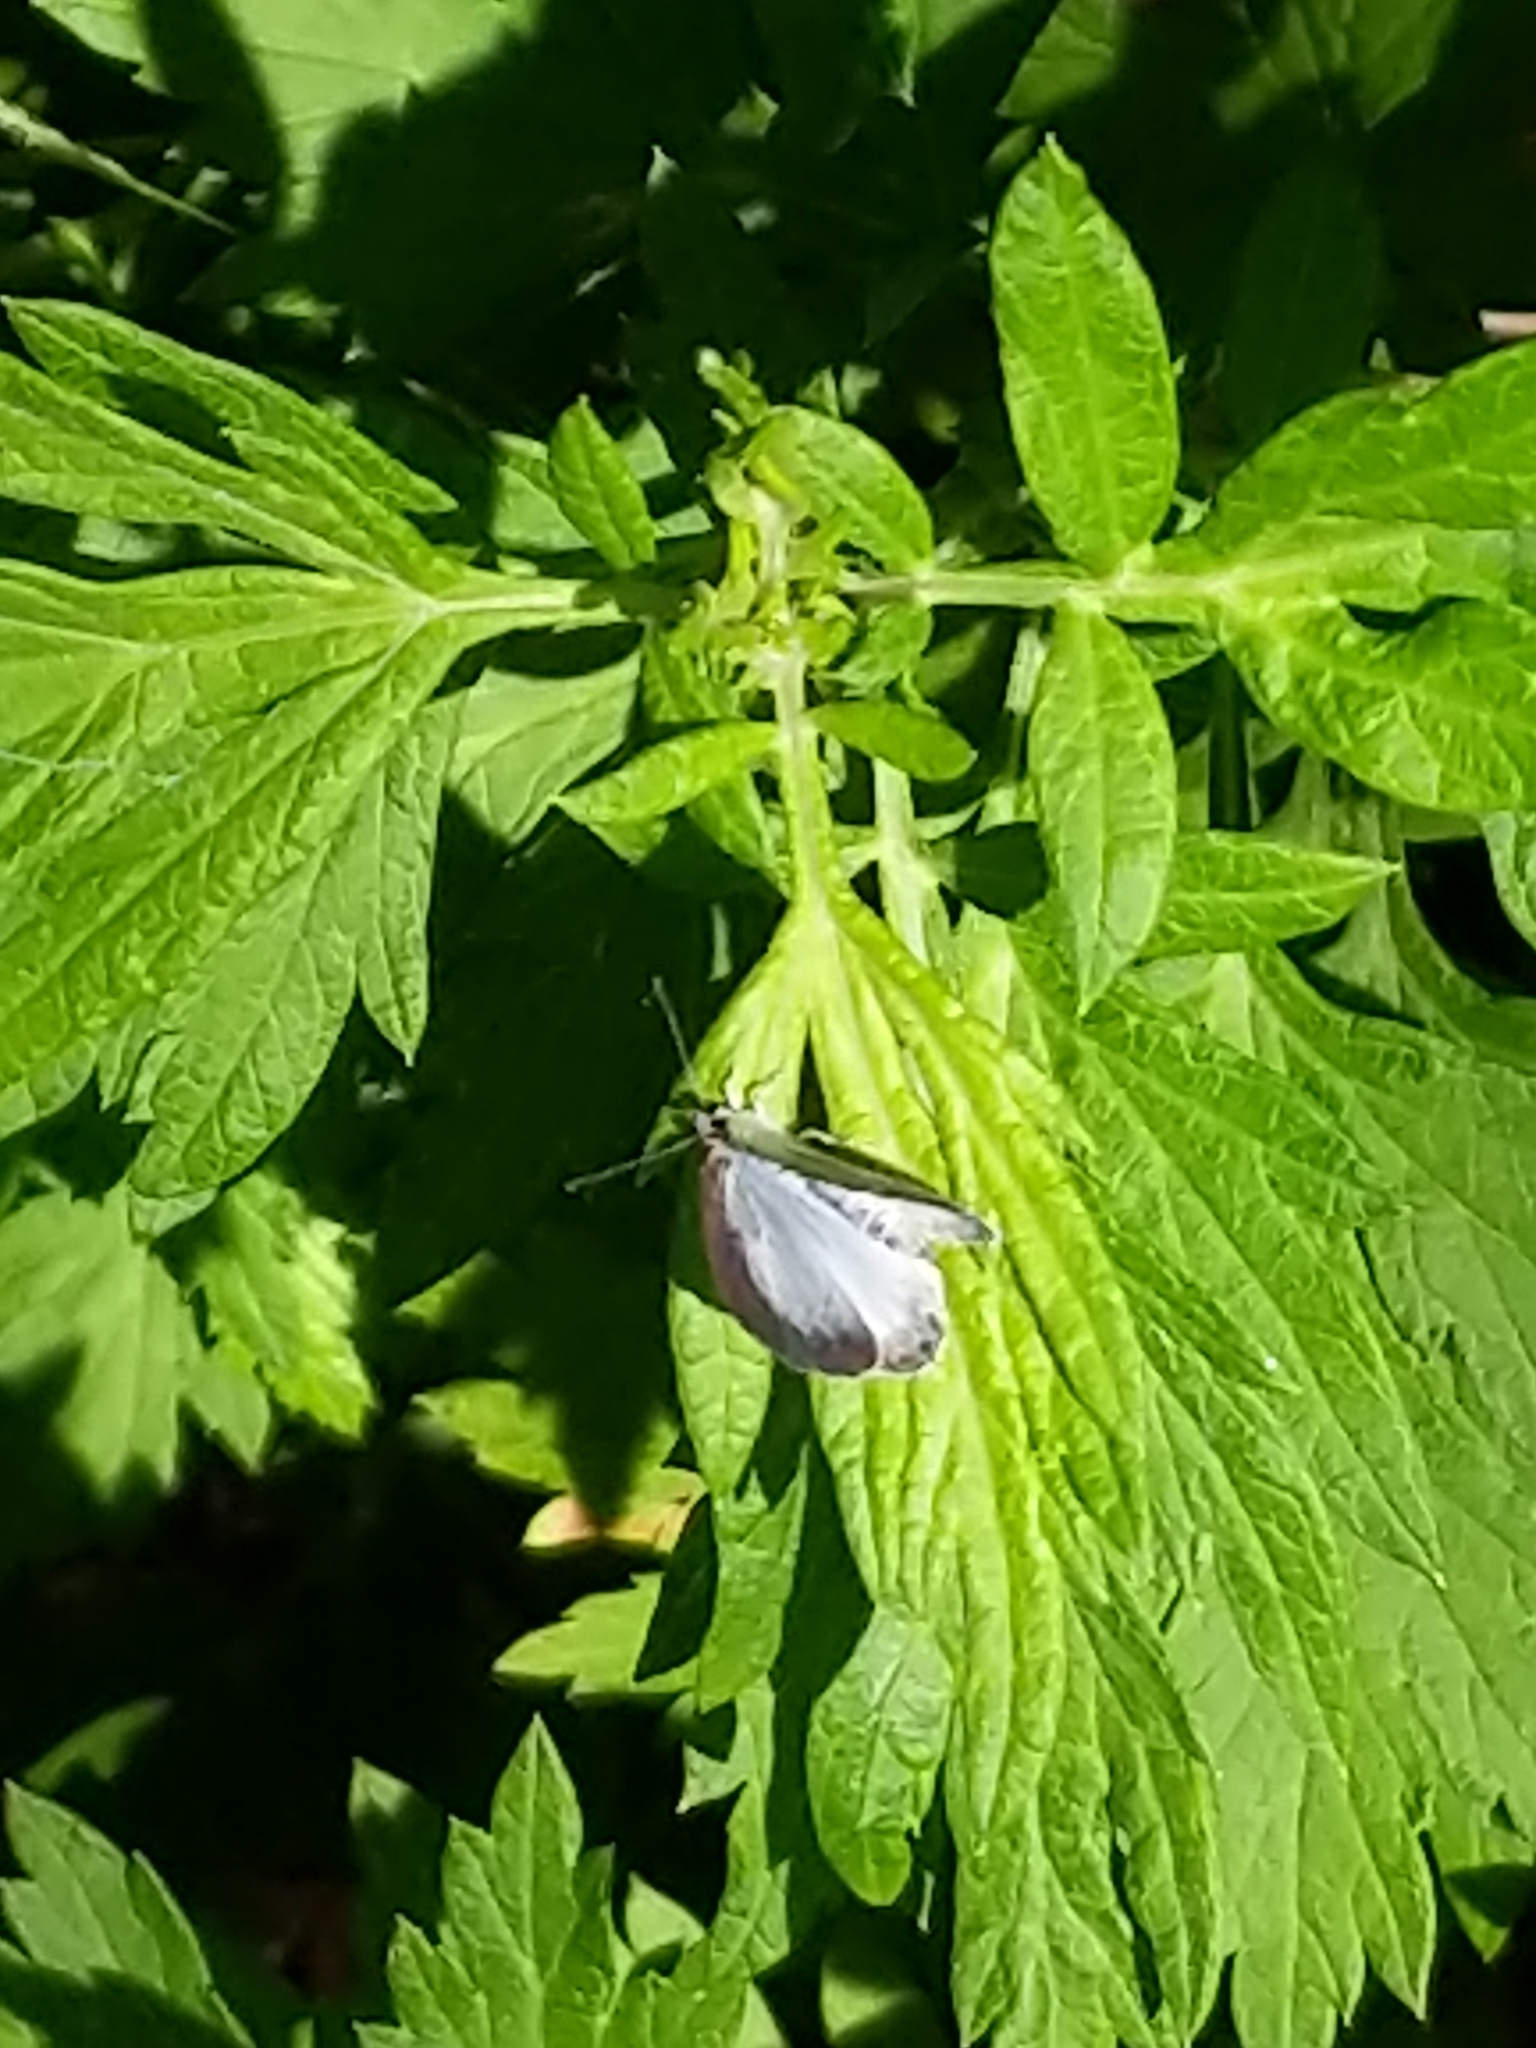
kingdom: Animalia
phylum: Arthropoda
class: Insecta
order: Lepidoptera
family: Lycaenidae
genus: Cyaniris
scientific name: Cyaniris neglecta
